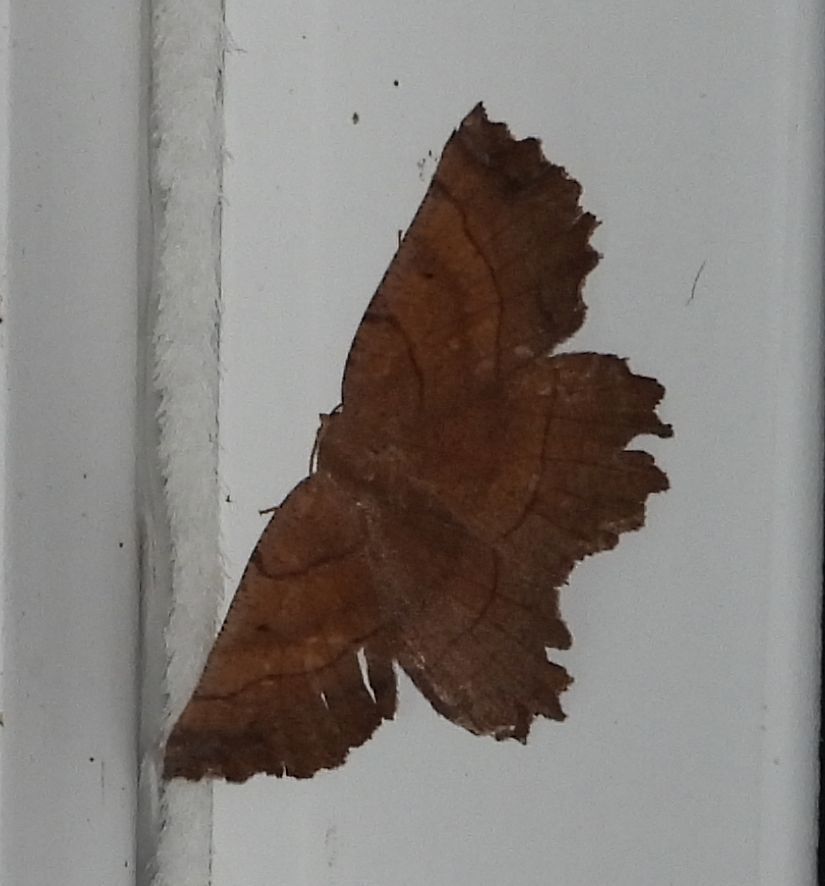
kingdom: Animalia
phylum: Arthropoda
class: Insecta
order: Lepidoptera
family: Geometridae
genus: Euchlaena
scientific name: Euchlaena johnsonaria
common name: Johnson's euchlaena
